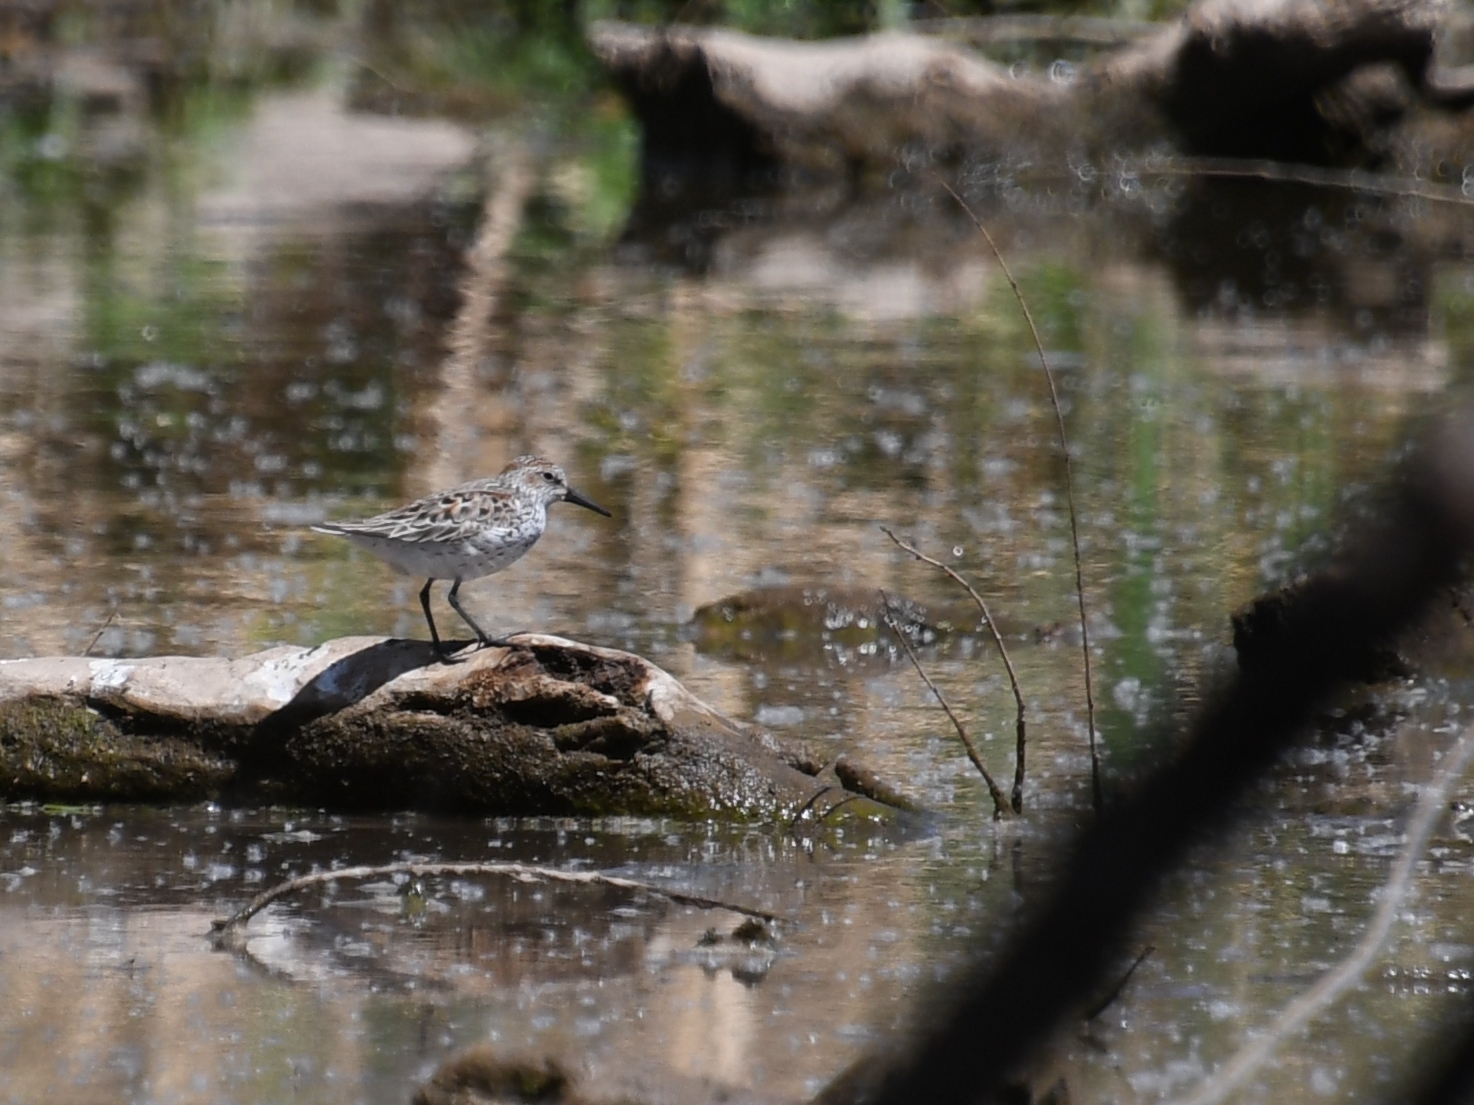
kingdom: Animalia
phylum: Chordata
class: Aves
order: Charadriiformes
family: Scolopacidae
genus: Calidris
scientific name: Calidris mauri
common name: Western sandpiper
